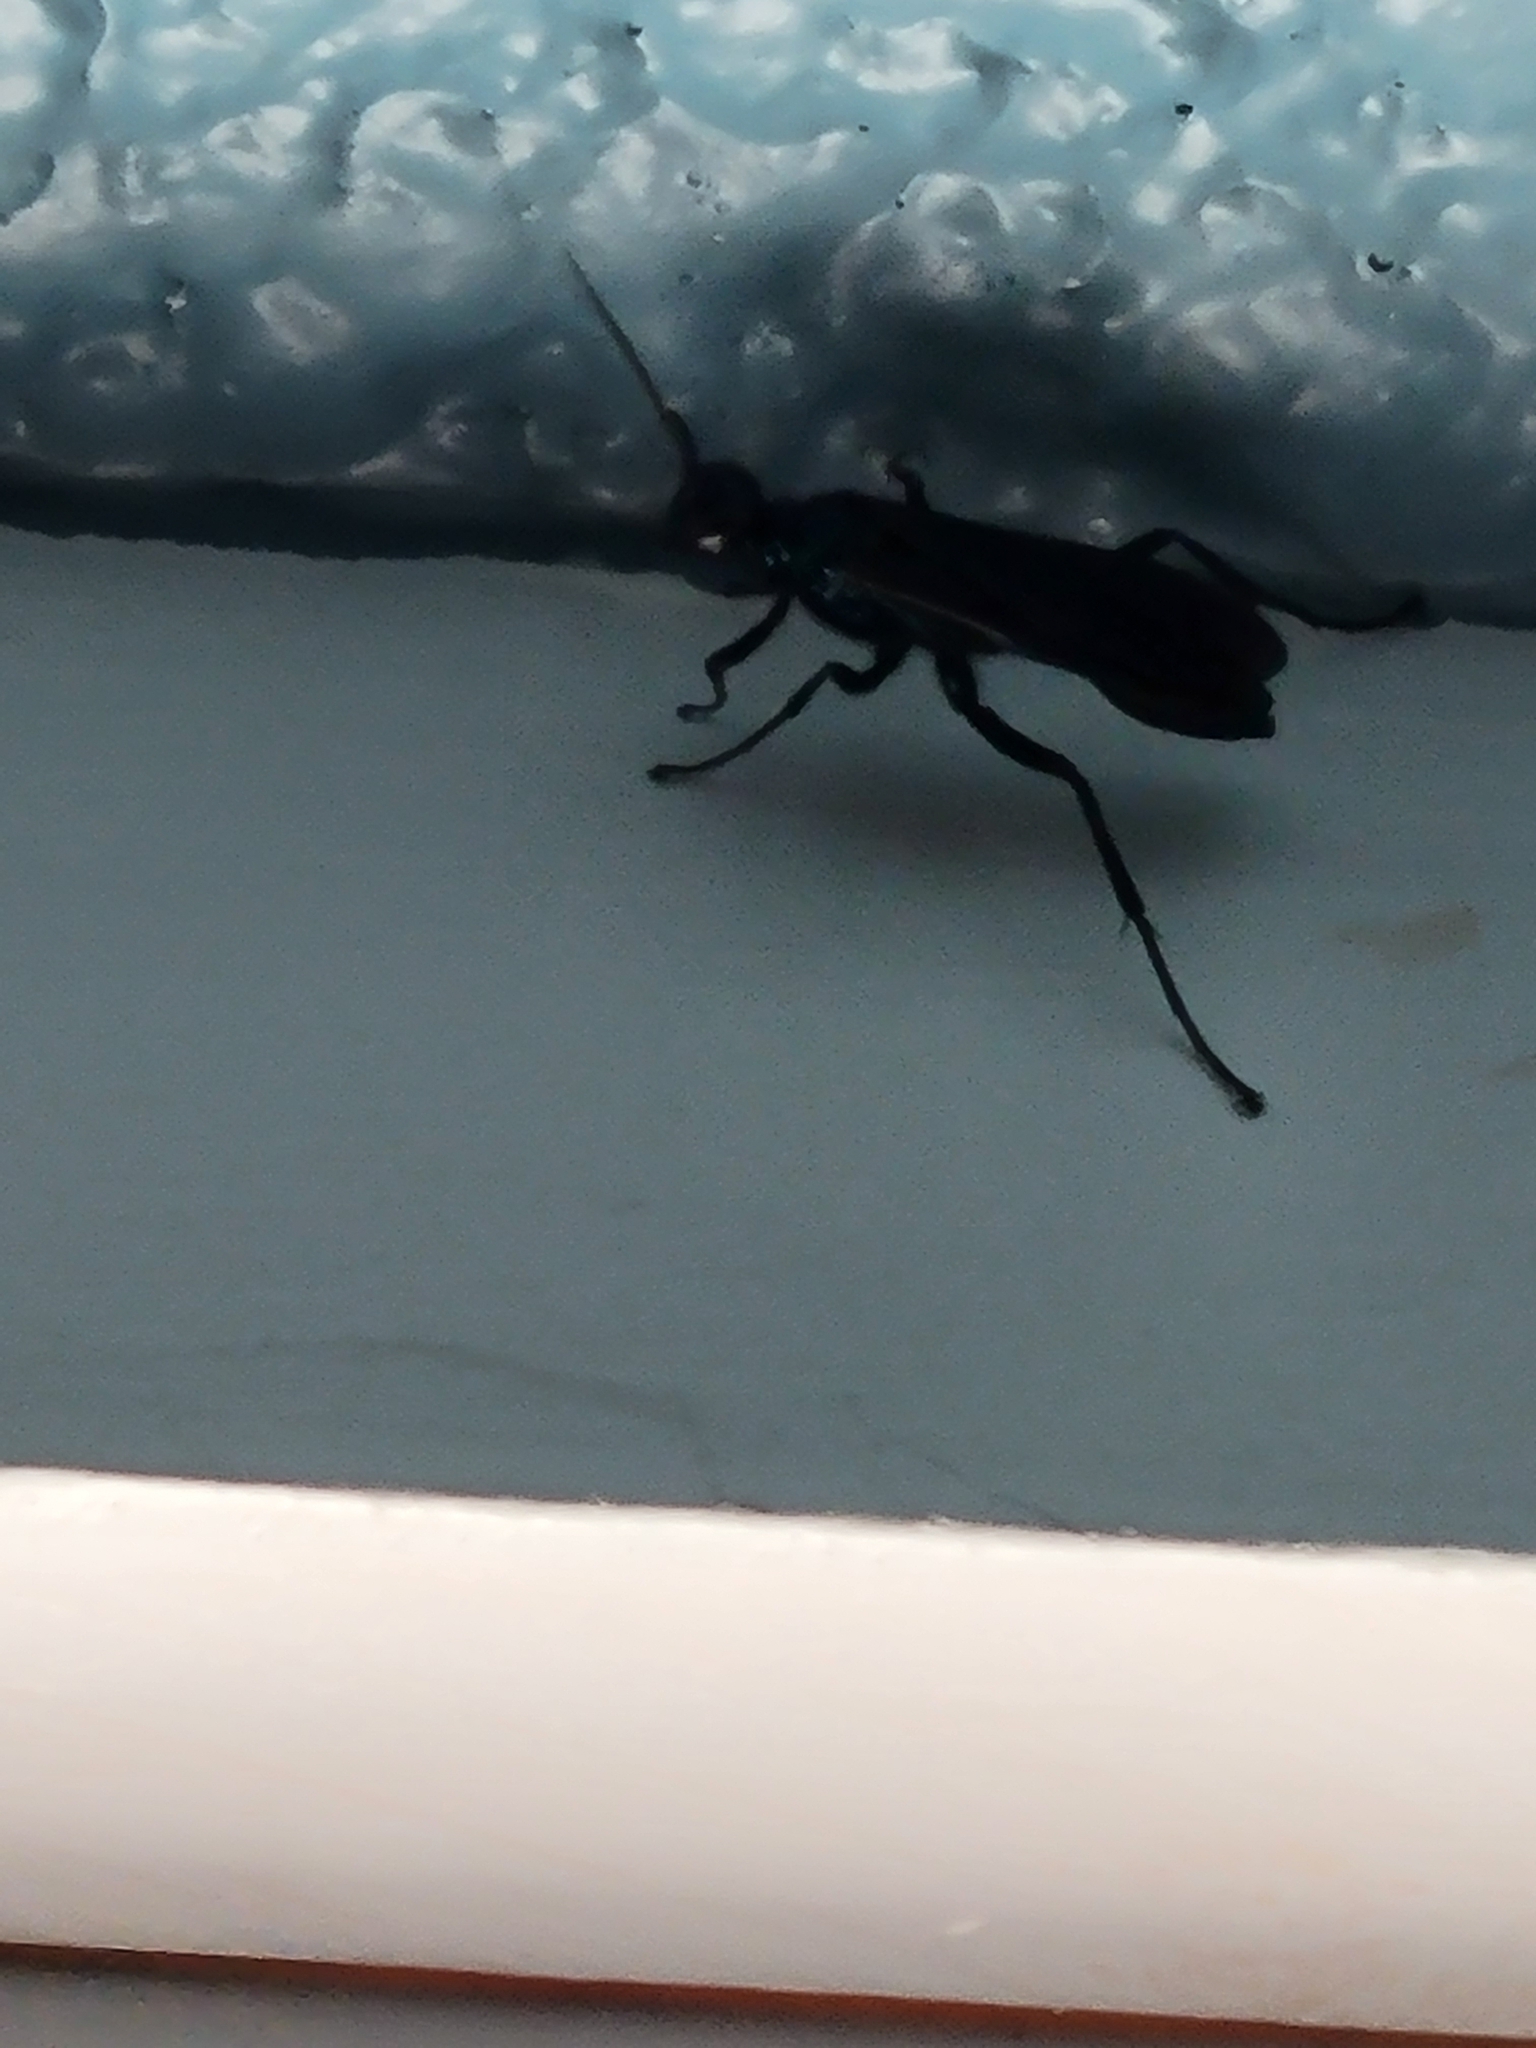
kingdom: Animalia
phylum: Arthropoda
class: Insecta
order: Hymenoptera
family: Sphecidae
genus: Chalybion
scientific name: Chalybion californicum
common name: Mud dauber
